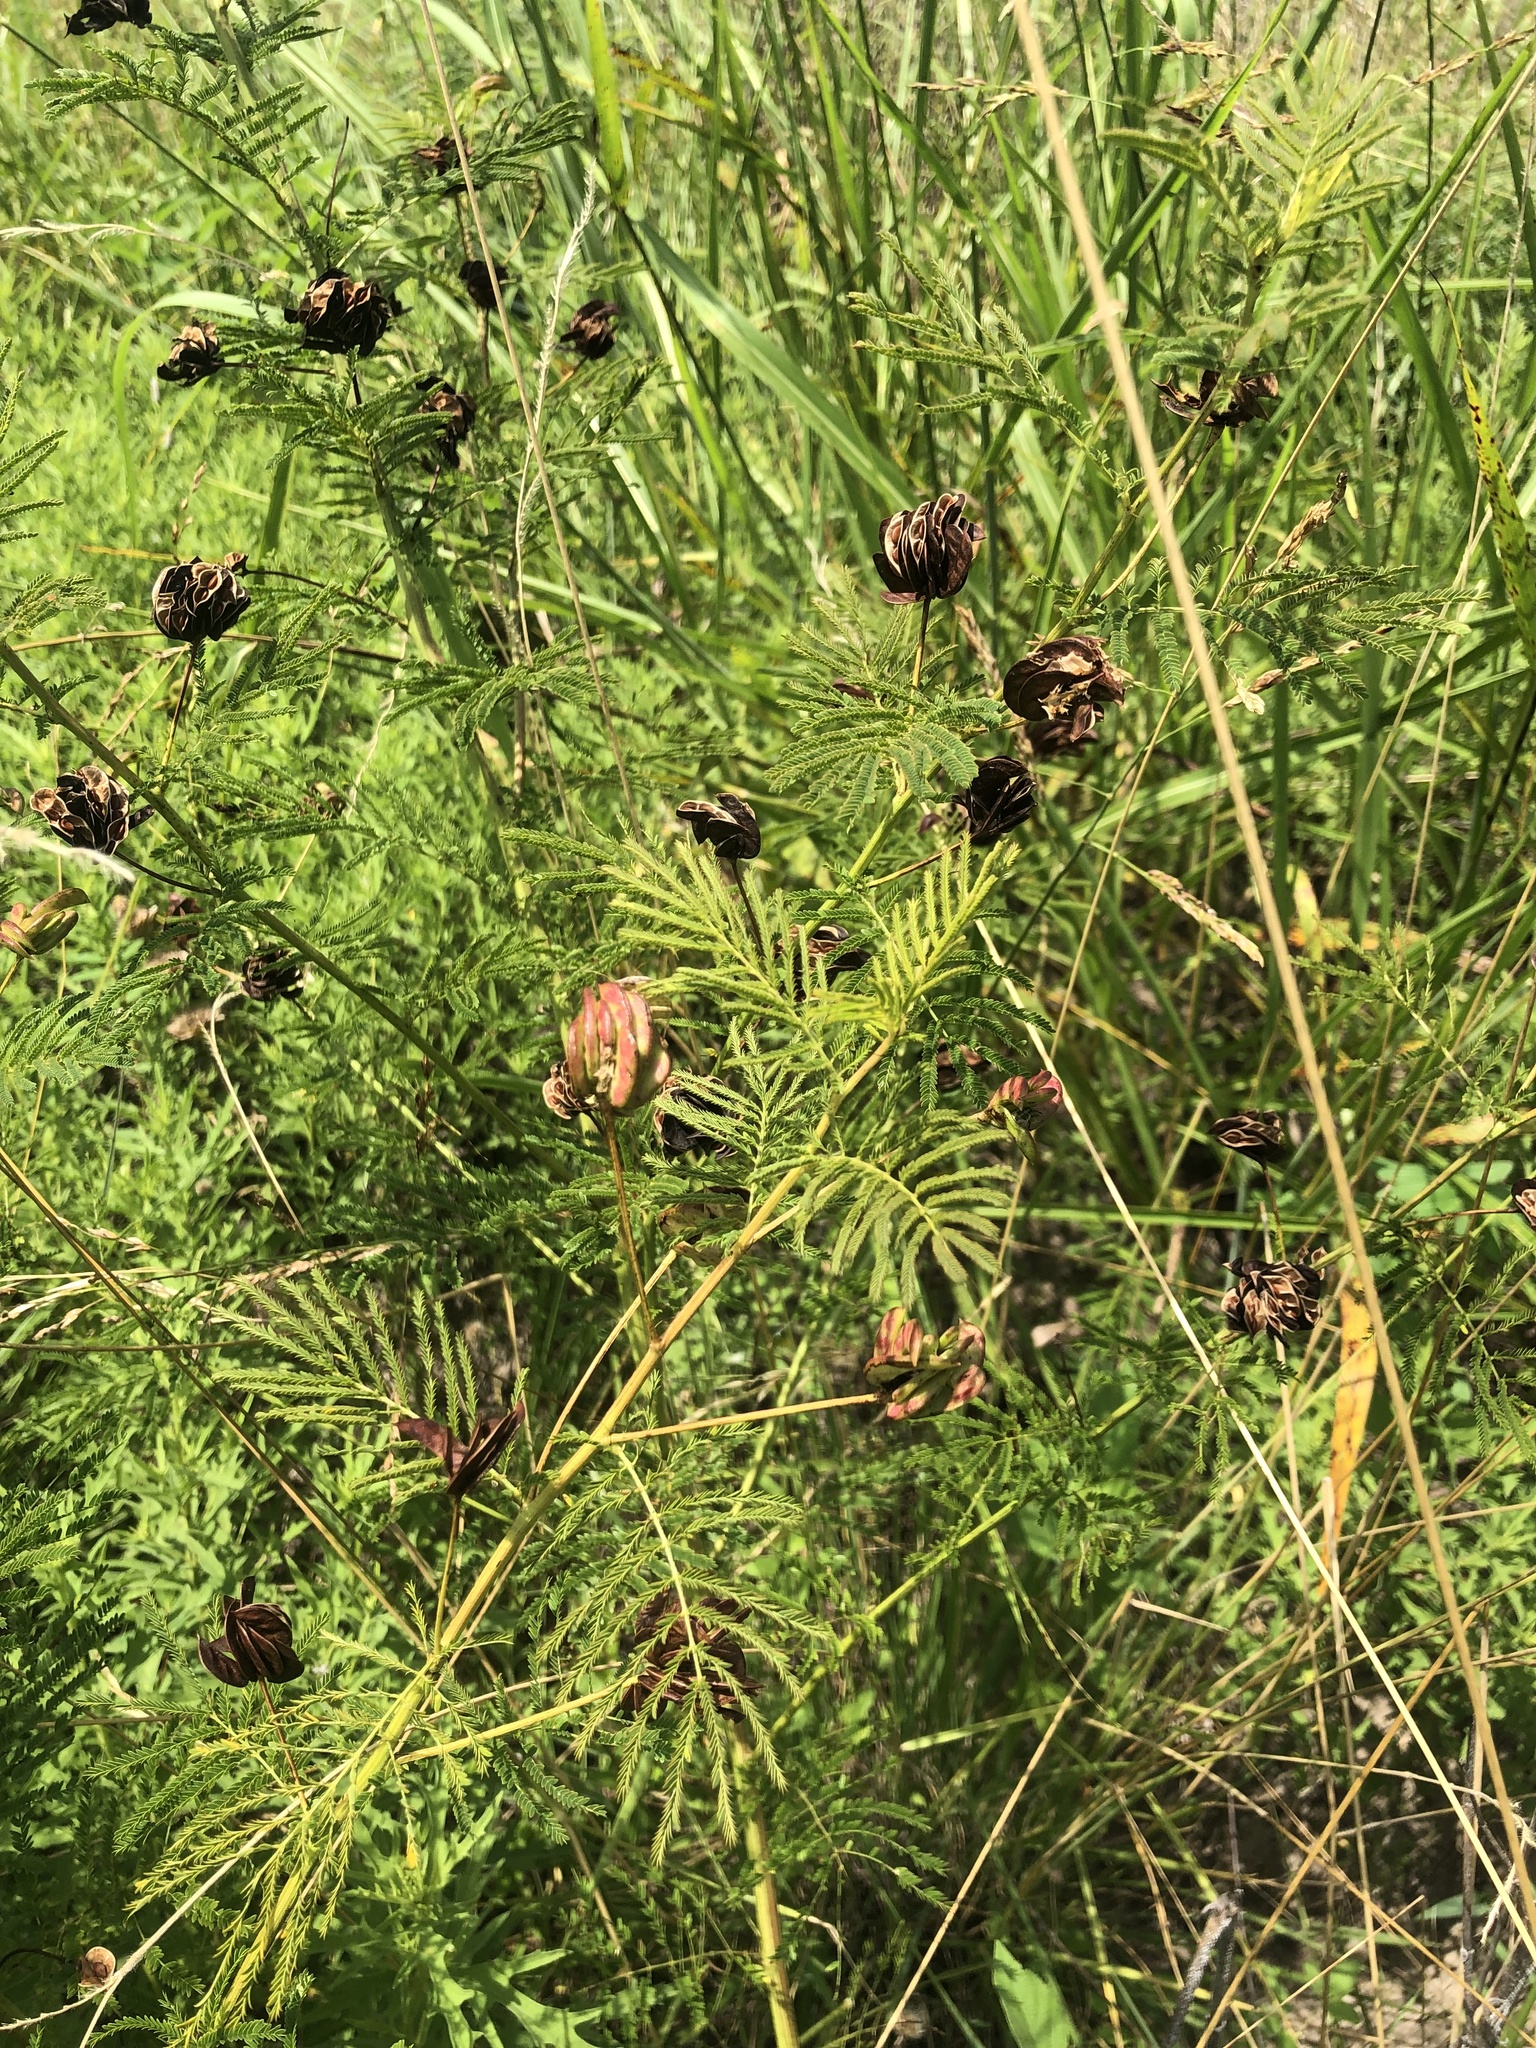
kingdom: Plantae
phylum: Tracheophyta
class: Magnoliopsida
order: Fabales
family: Fabaceae
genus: Desmanthus
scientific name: Desmanthus illinoensis
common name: Illinois bundle-flower
